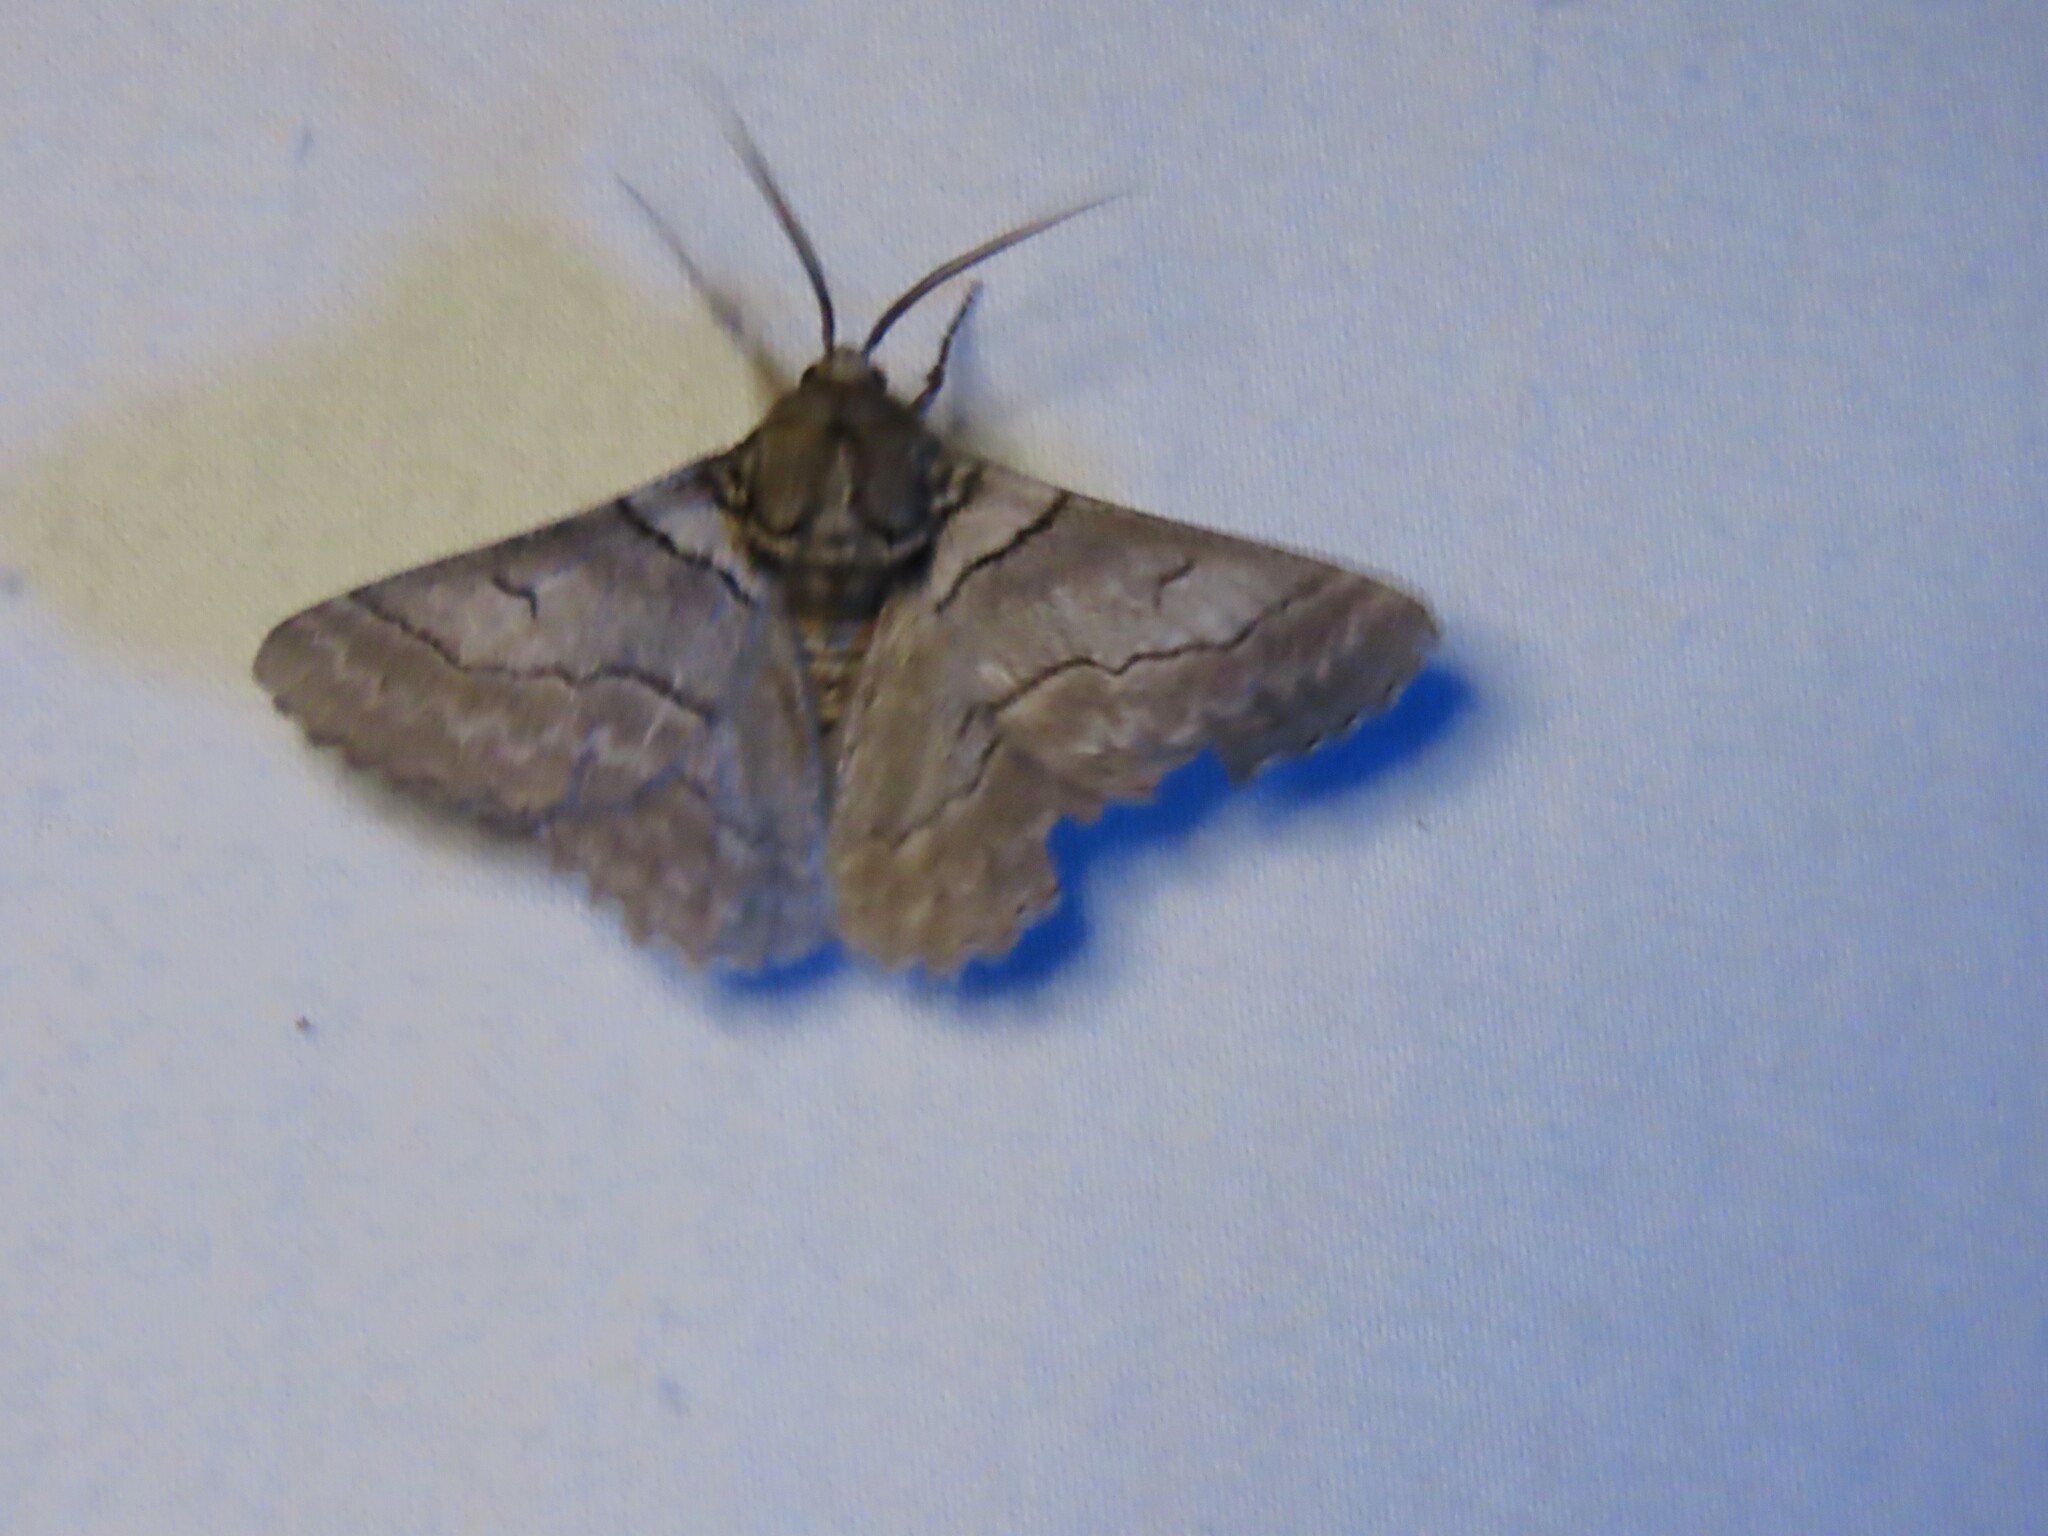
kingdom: Animalia
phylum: Arthropoda
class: Insecta
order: Lepidoptera
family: Geometridae
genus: Hypobapta
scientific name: Hypobapta tachyhalotaria
